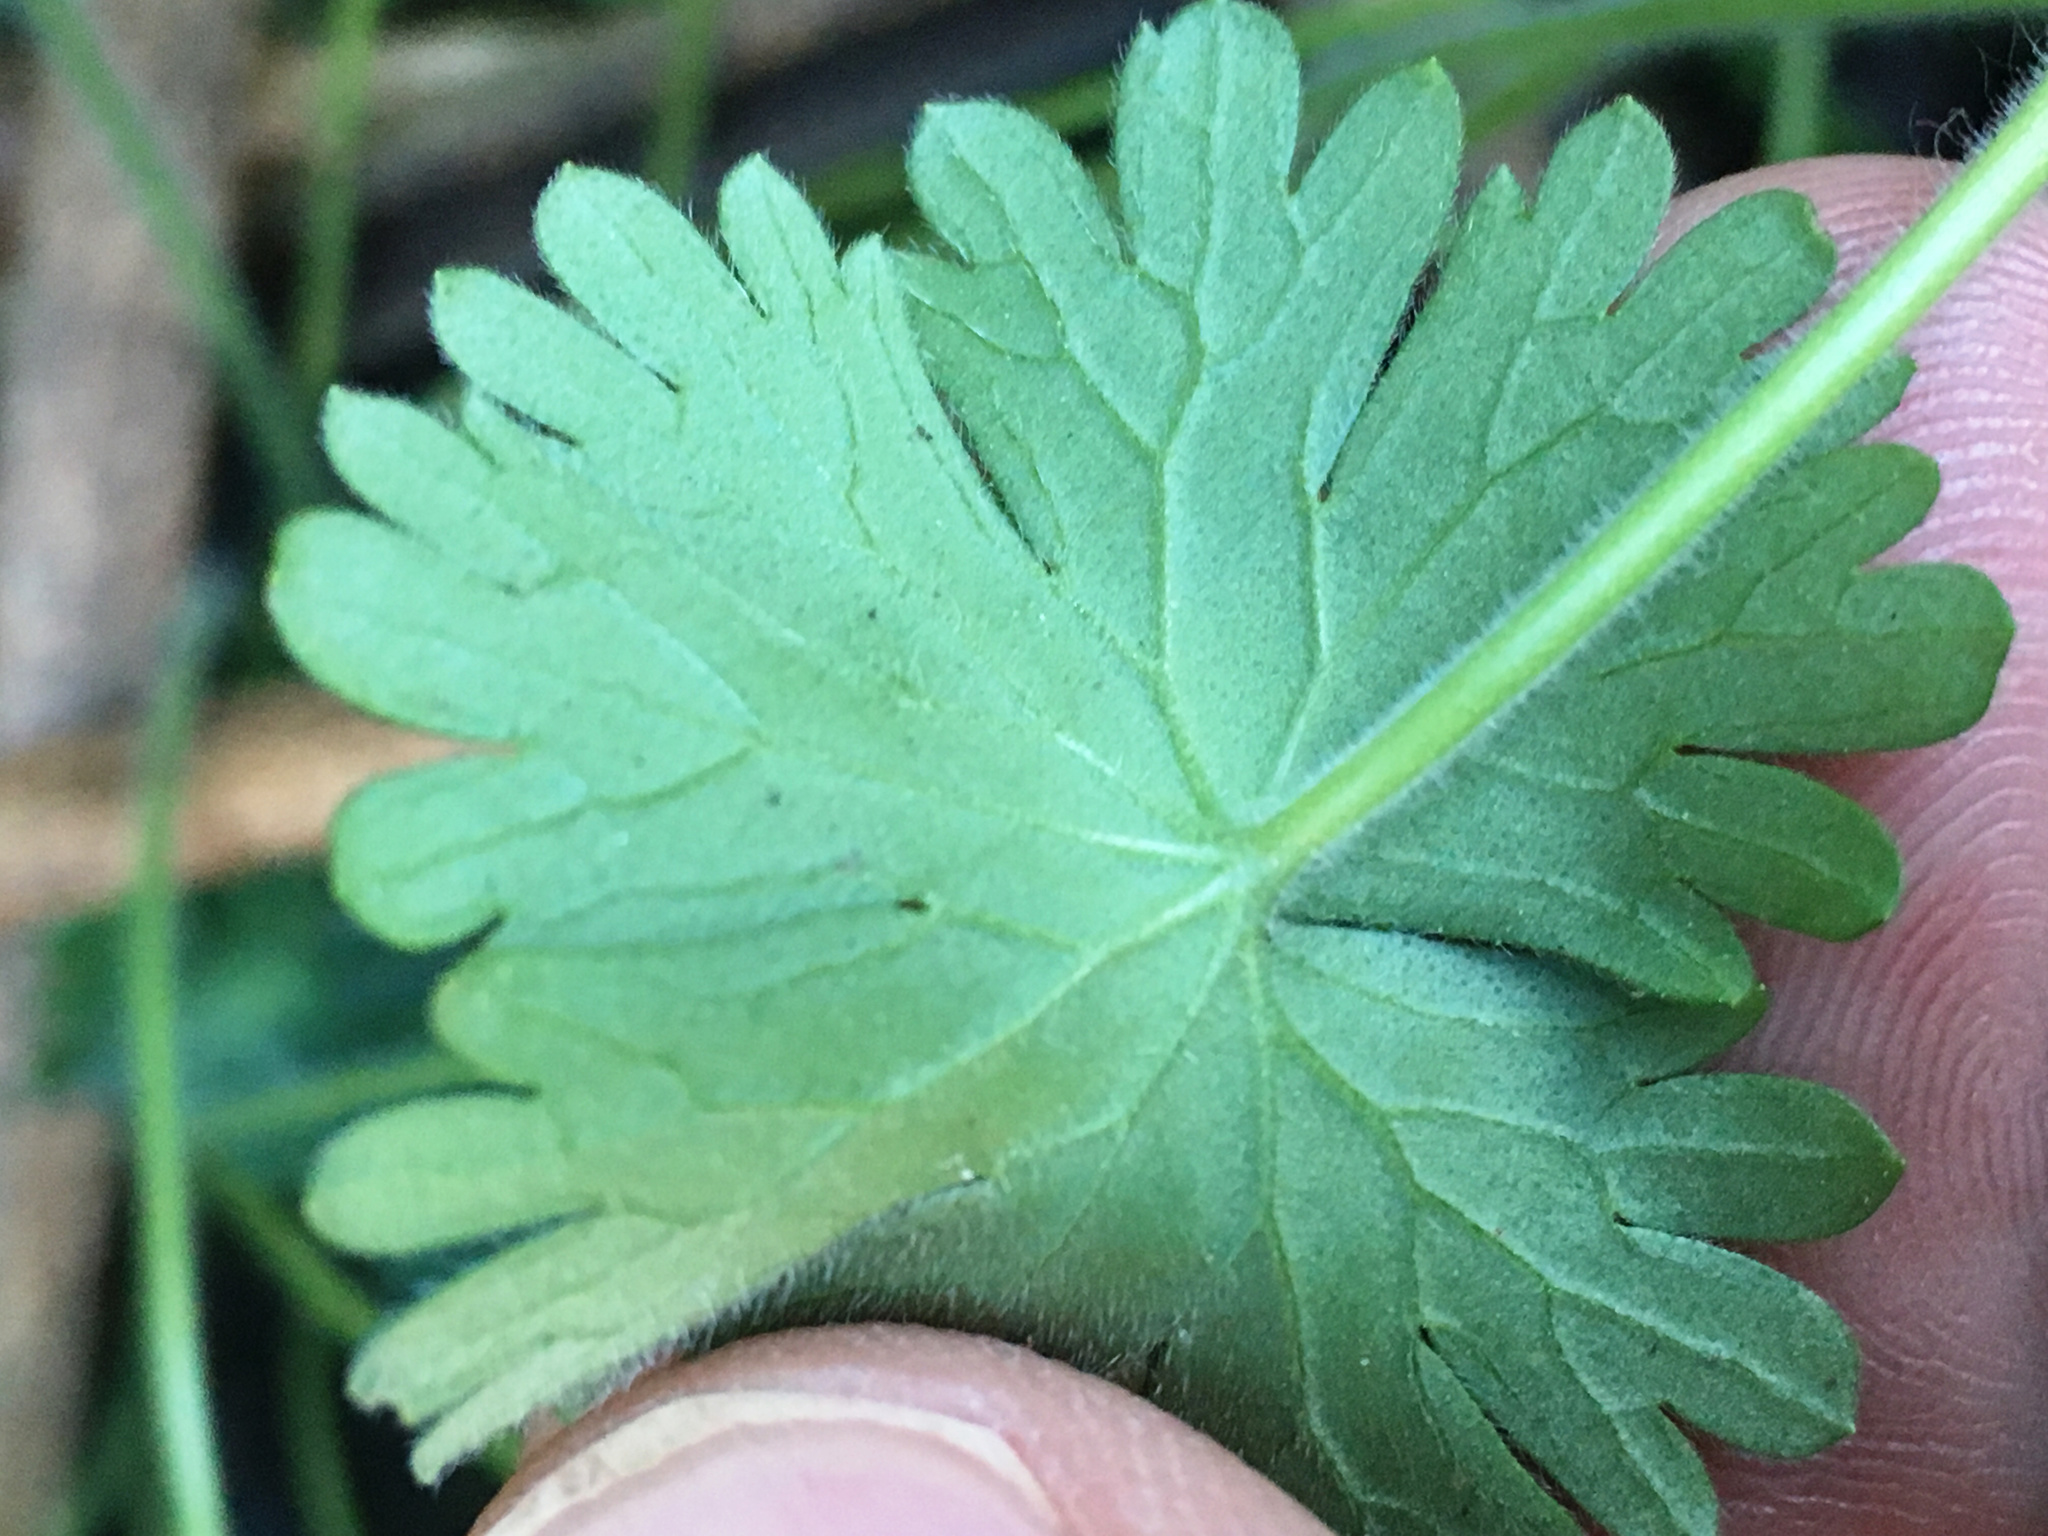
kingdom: Plantae
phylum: Tracheophyta
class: Magnoliopsida
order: Geraniales
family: Geraniaceae
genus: Geranium
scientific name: Geranium molle
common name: Dove's-foot crane's-bill
